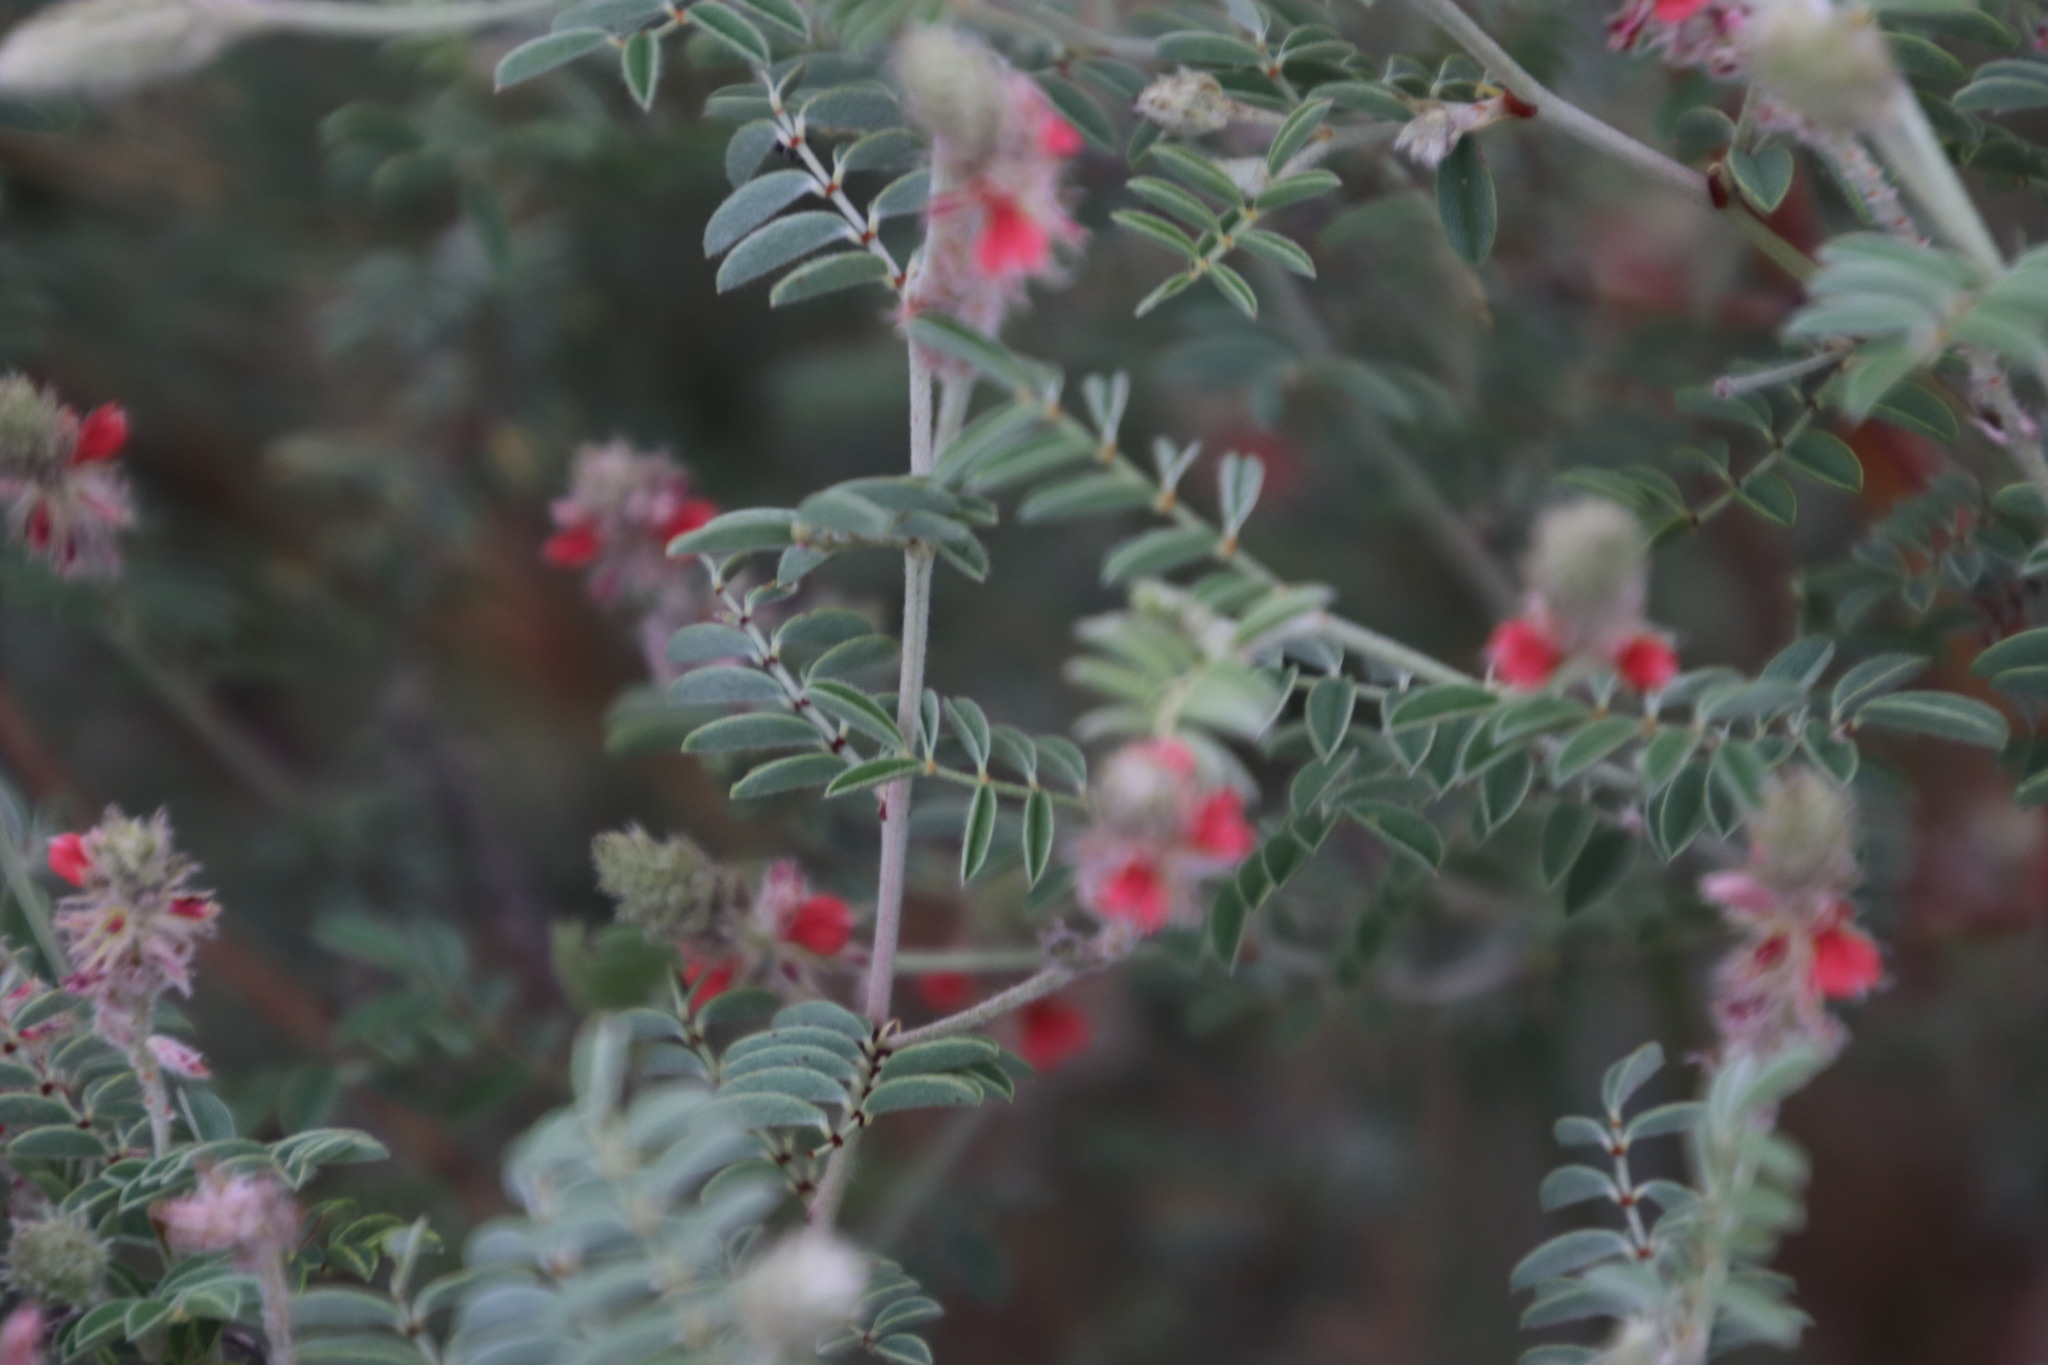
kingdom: Plantae
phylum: Tracheophyta
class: Magnoliopsida
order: Fabales
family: Fabaceae
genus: Indigofera
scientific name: Indigofera melanadenia
